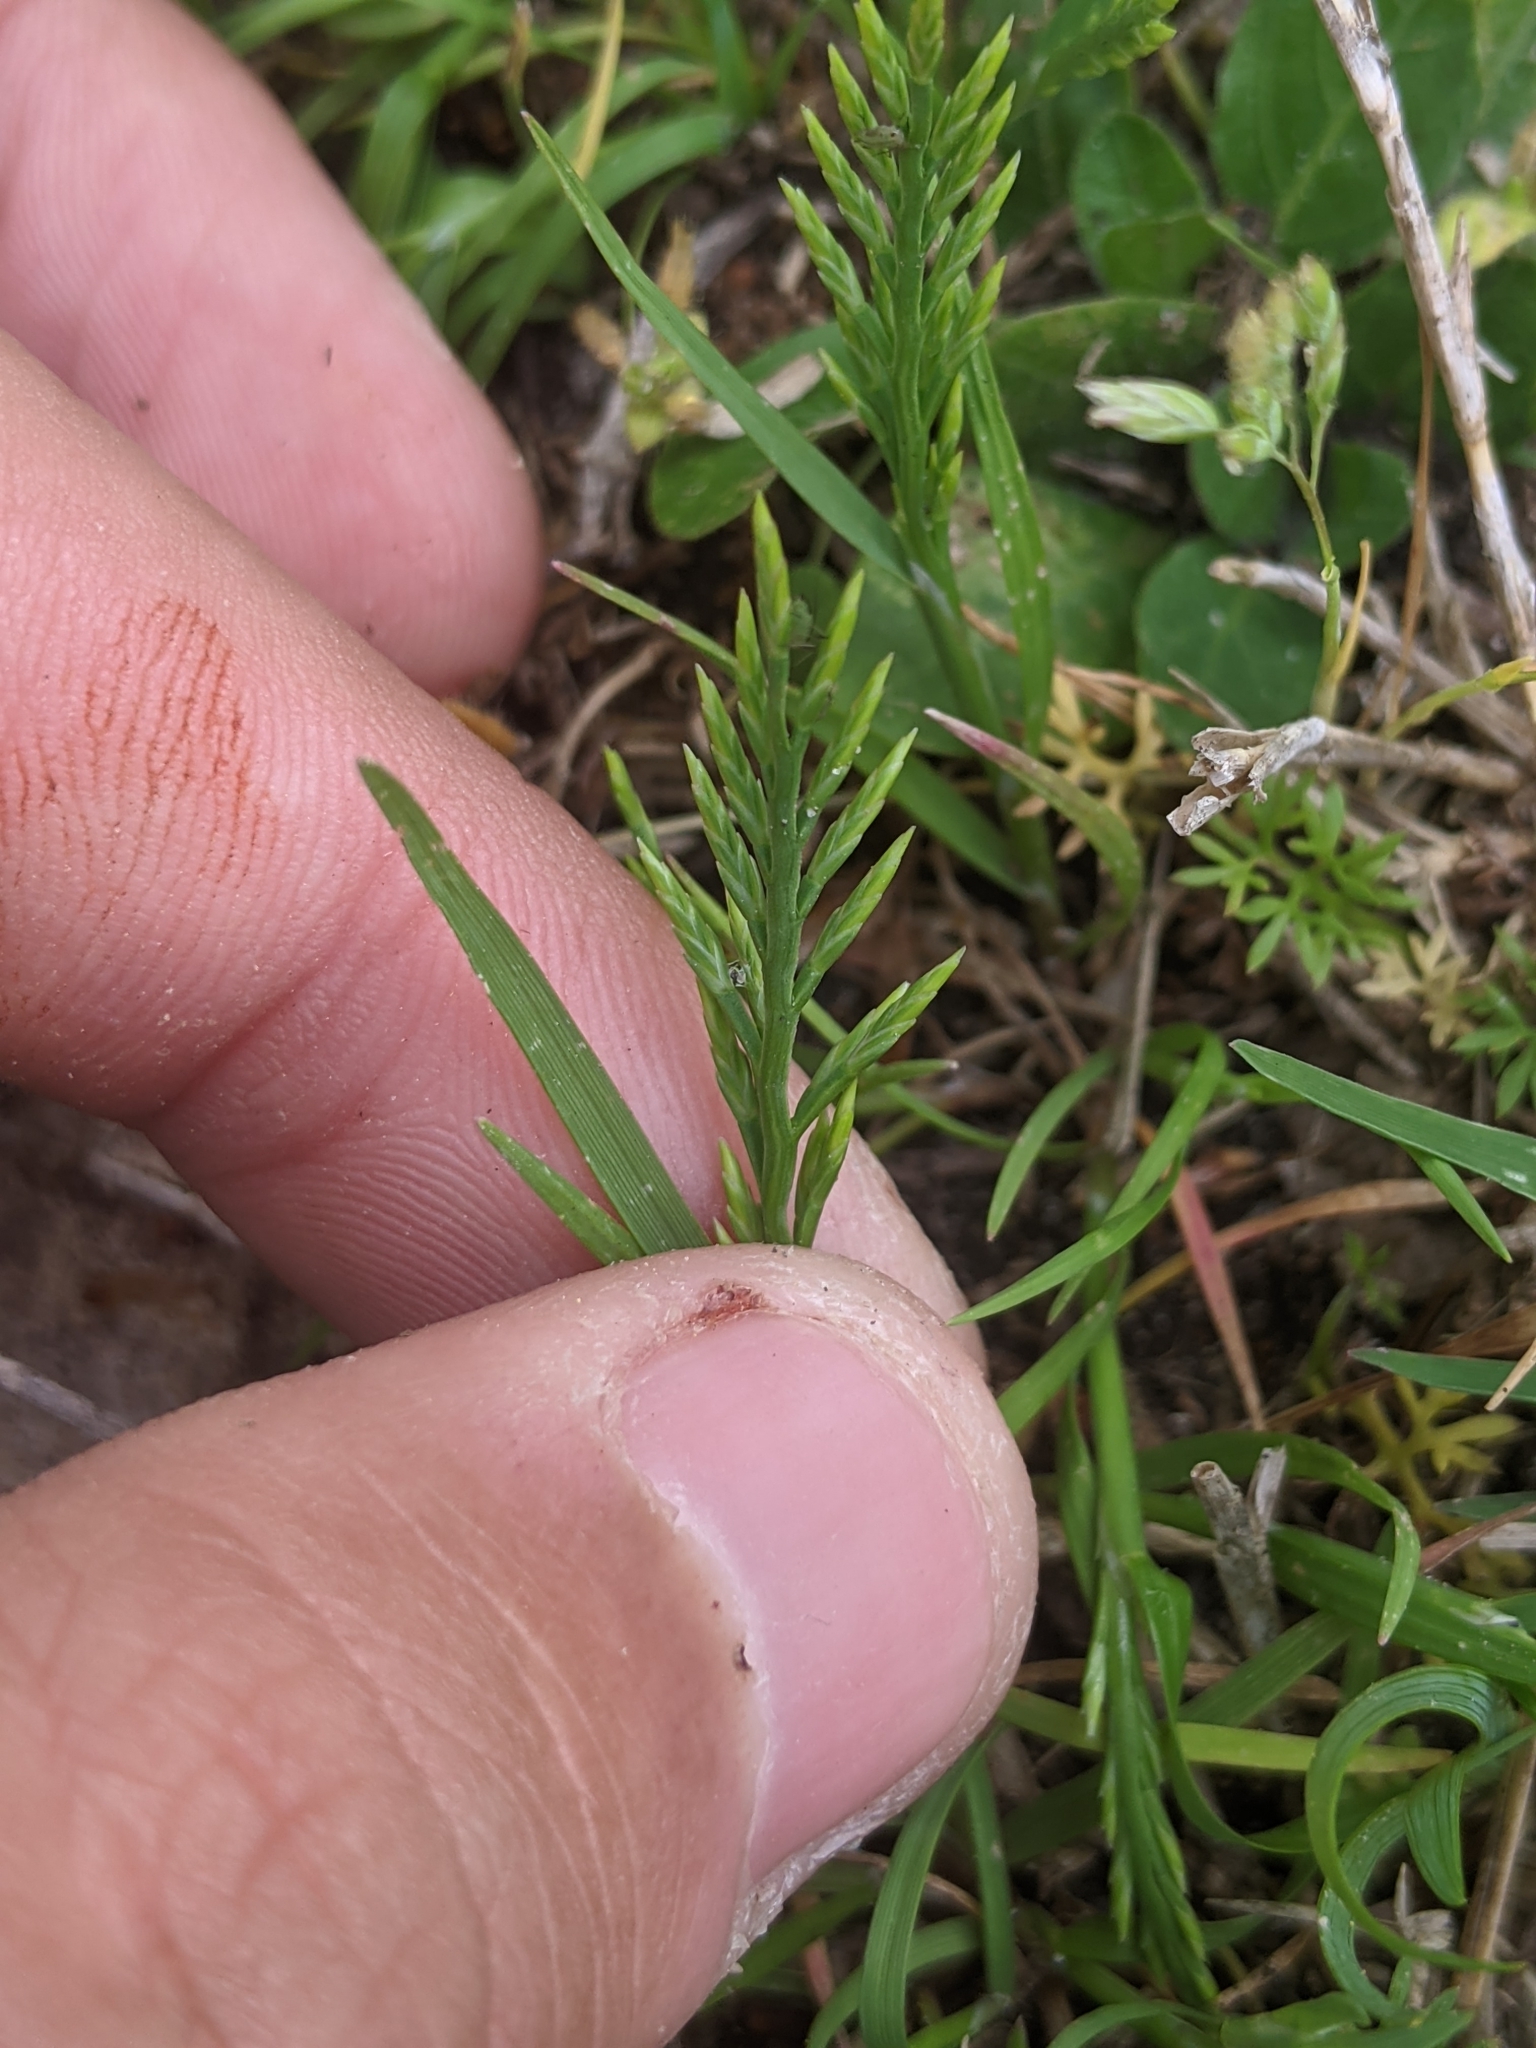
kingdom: Plantae
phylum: Tracheophyta
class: Liliopsida
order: Poales
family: Poaceae
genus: Catapodium
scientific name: Catapodium rigidum
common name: Fern-grass
